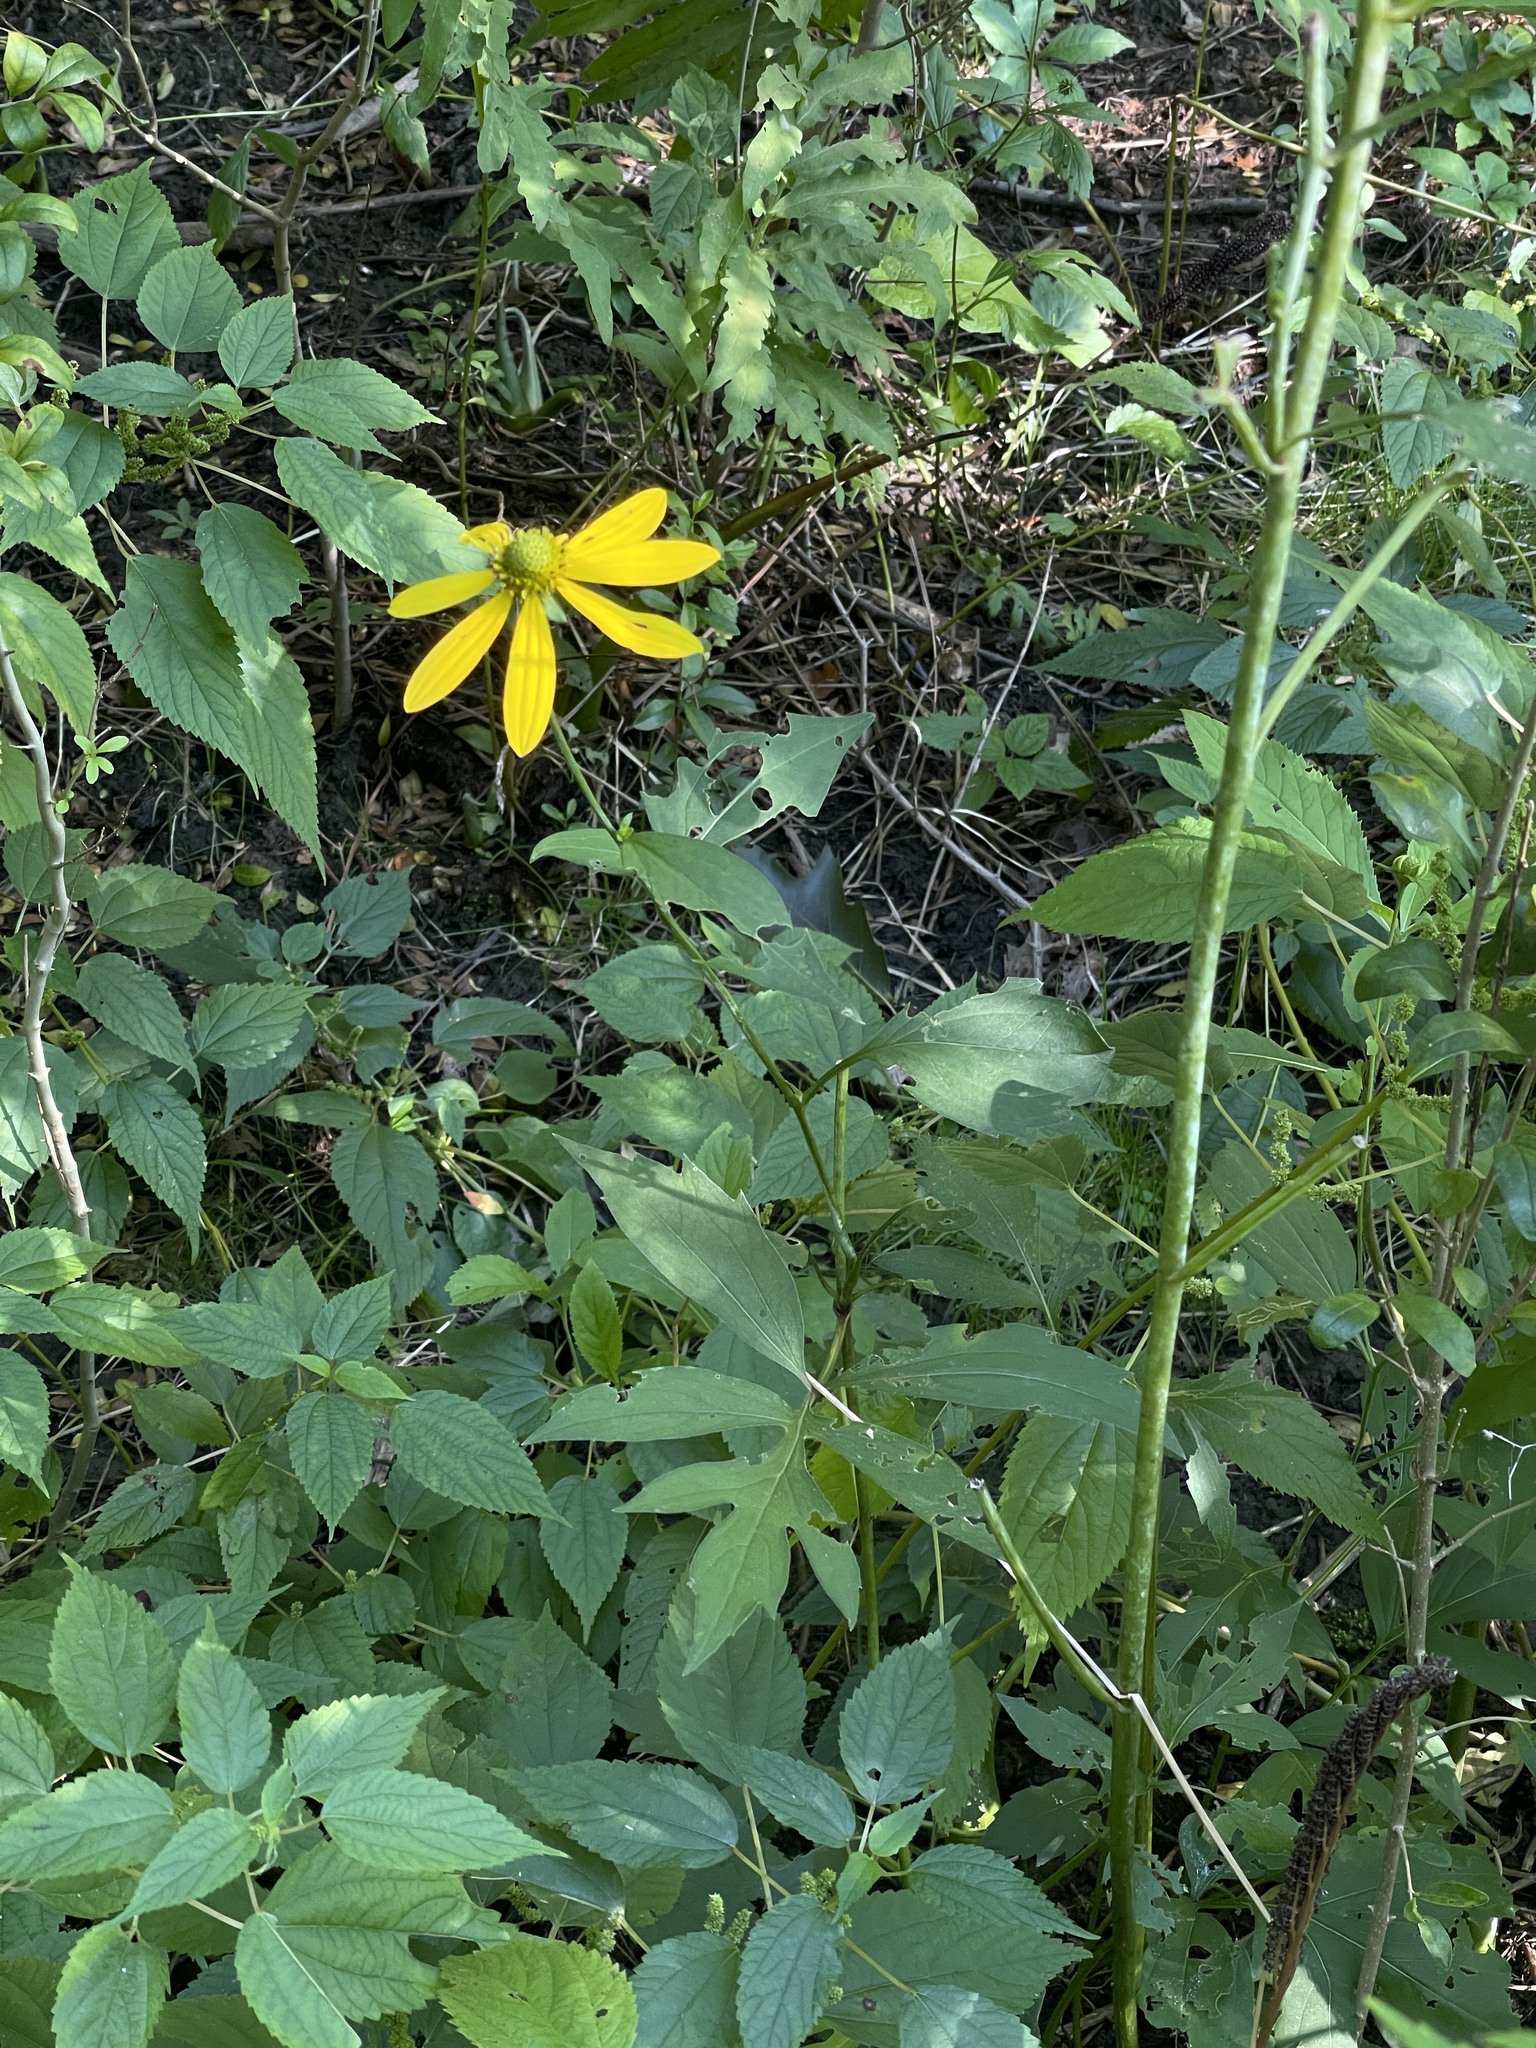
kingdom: Plantae
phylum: Tracheophyta
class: Magnoliopsida
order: Asterales
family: Asteraceae
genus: Rudbeckia
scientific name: Rudbeckia laciniata
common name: Coneflower
